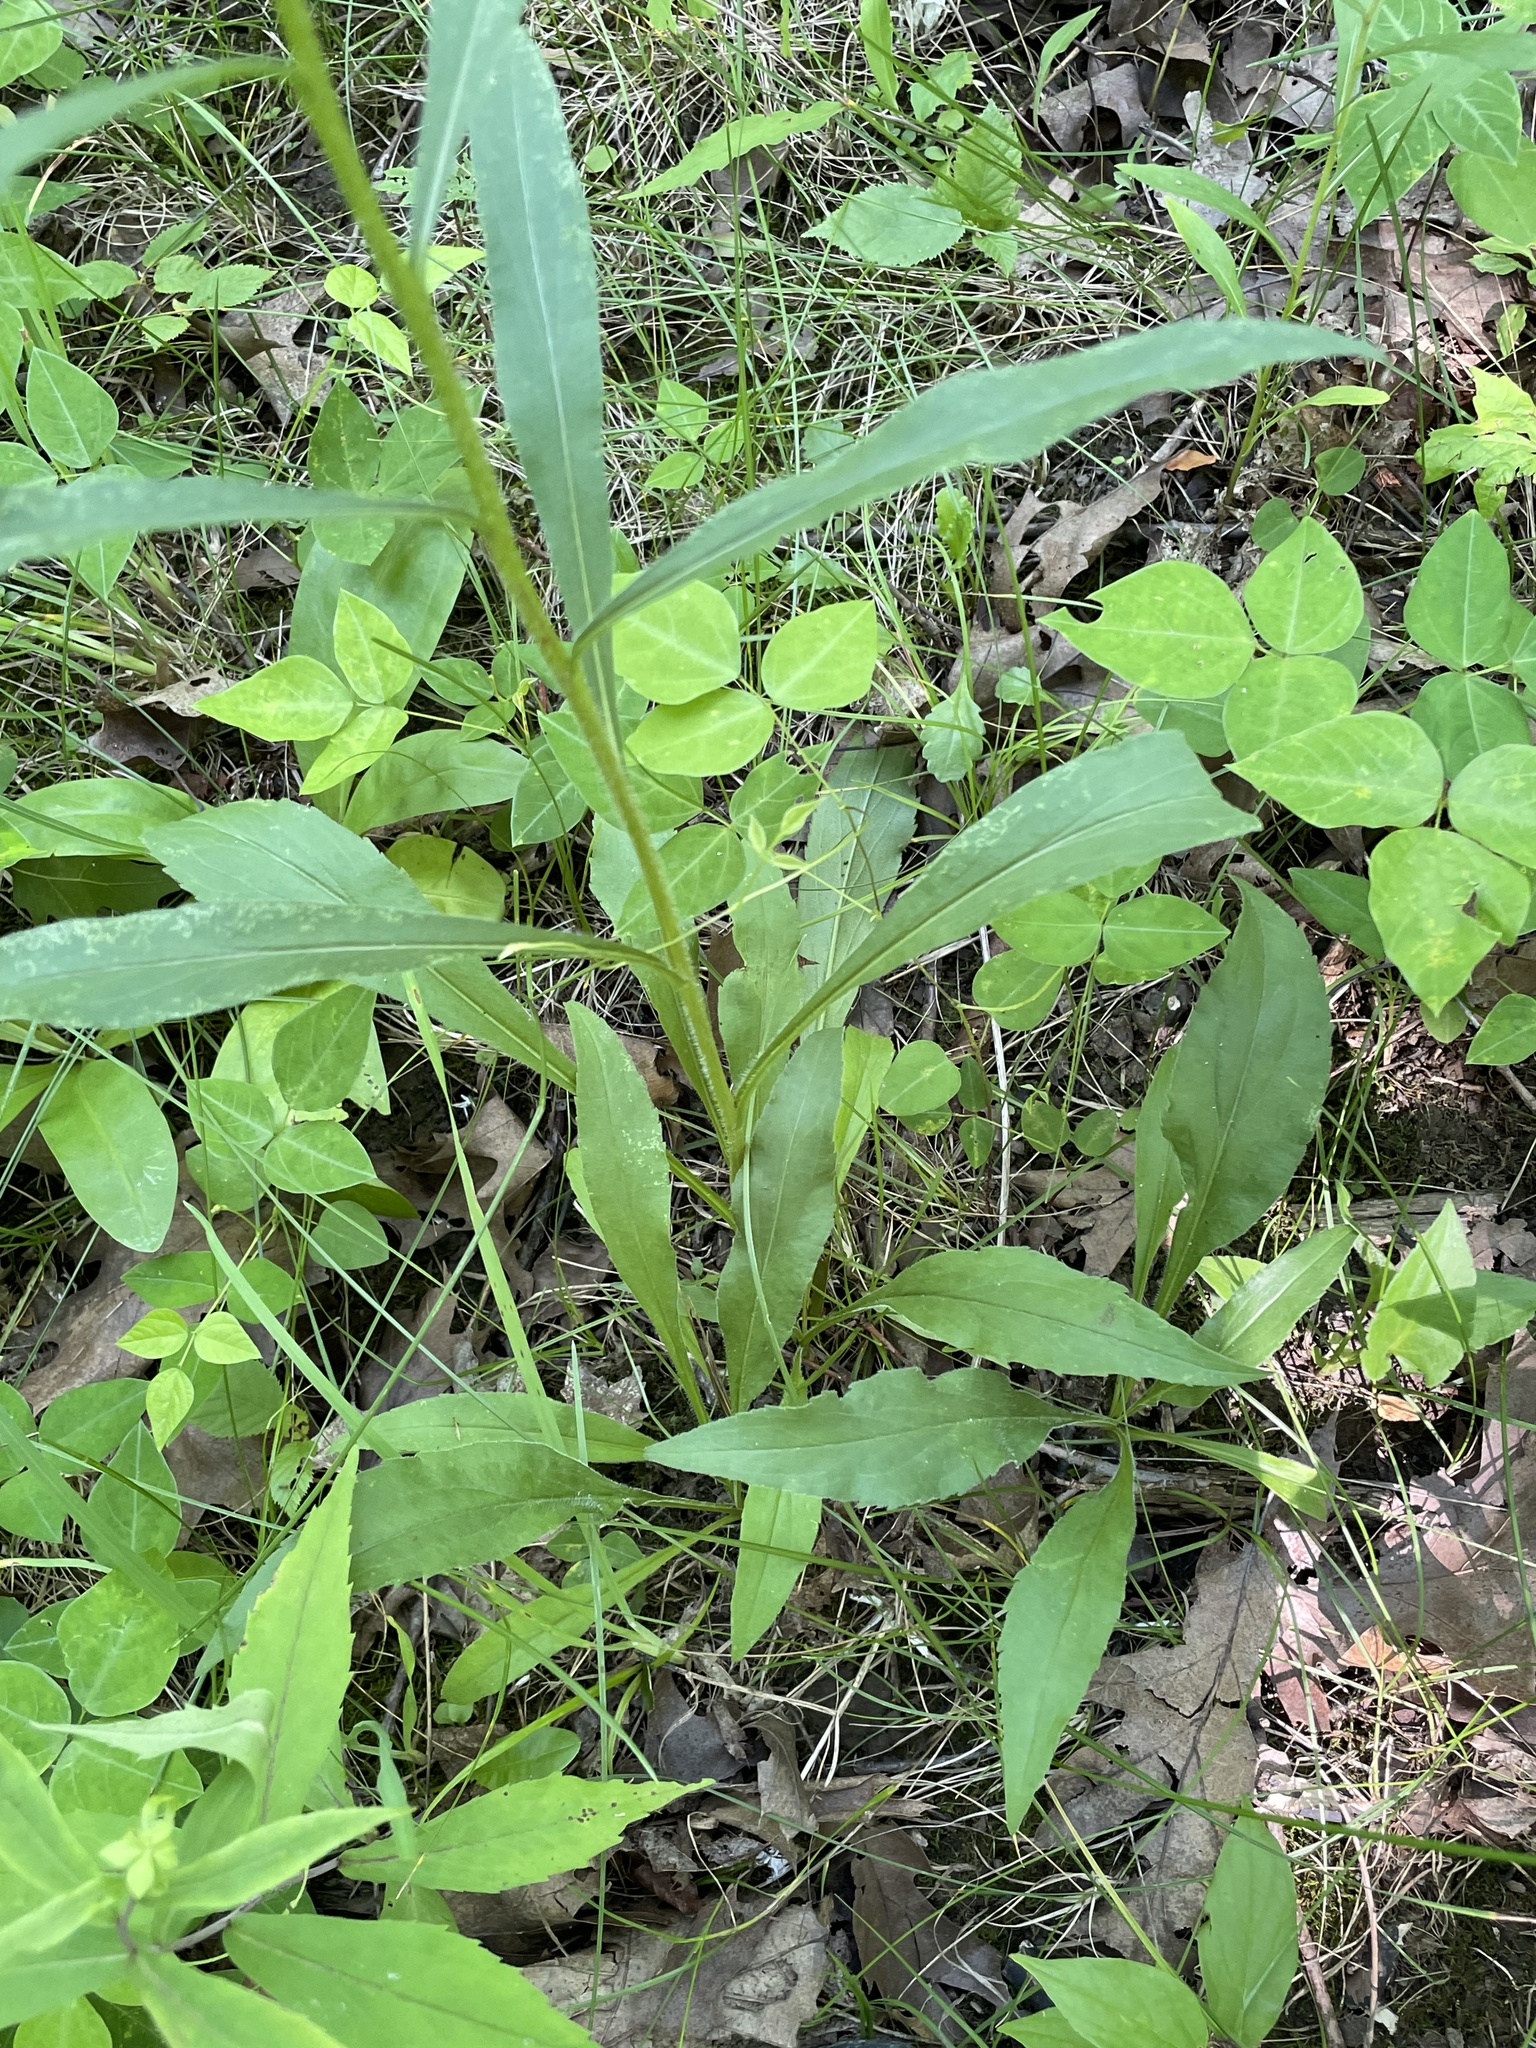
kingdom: Plantae
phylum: Tracheophyta
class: Magnoliopsida
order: Asterales
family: Asteraceae
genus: Solidago
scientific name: Solidago juncea
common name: Early goldenrod
